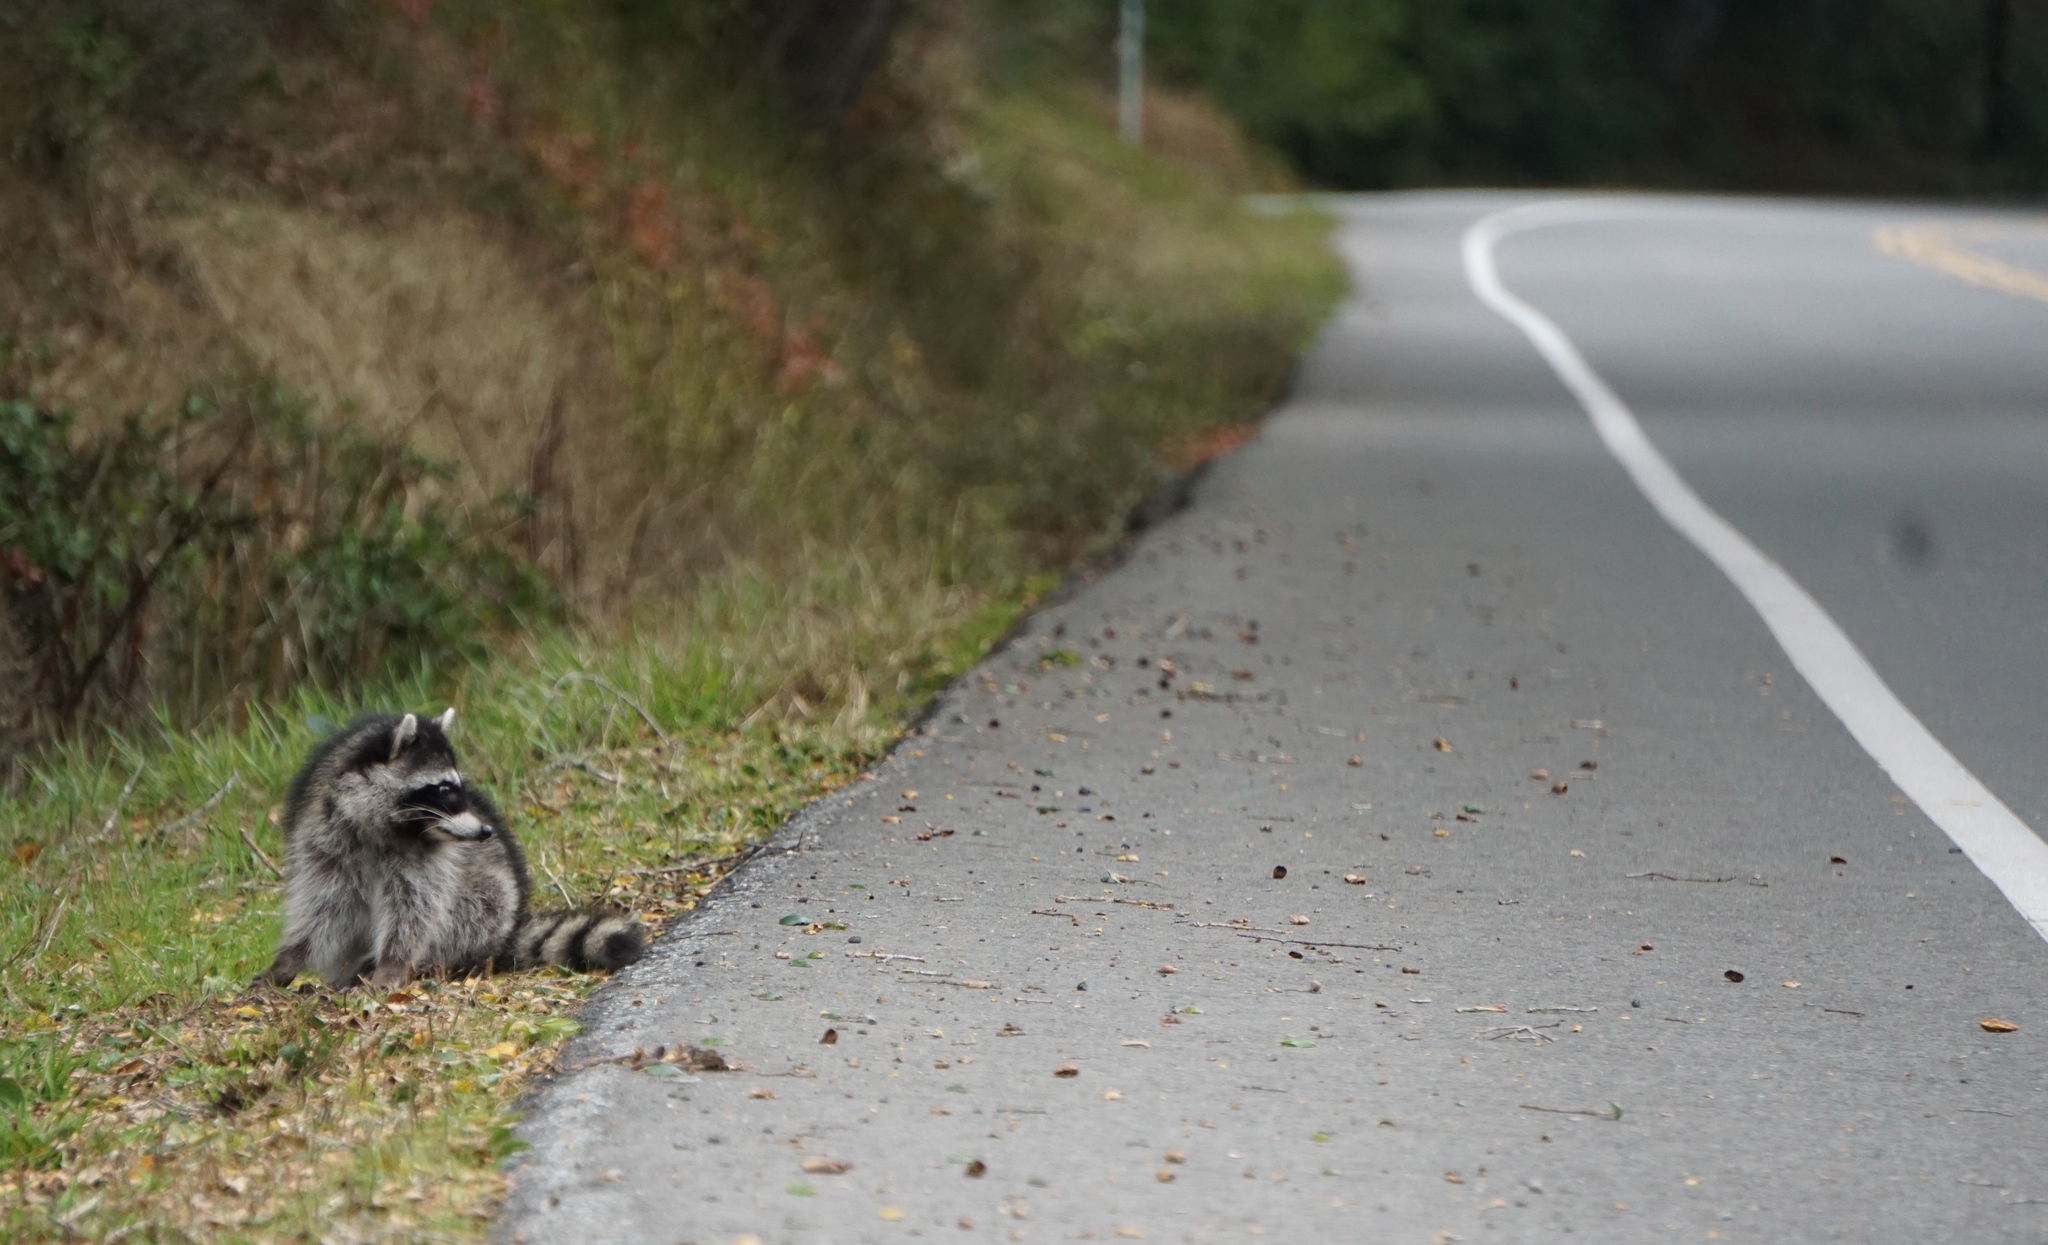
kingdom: Animalia
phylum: Chordata
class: Mammalia
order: Carnivora
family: Procyonidae
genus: Procyon
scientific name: Procyon lotor
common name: Raccoon
